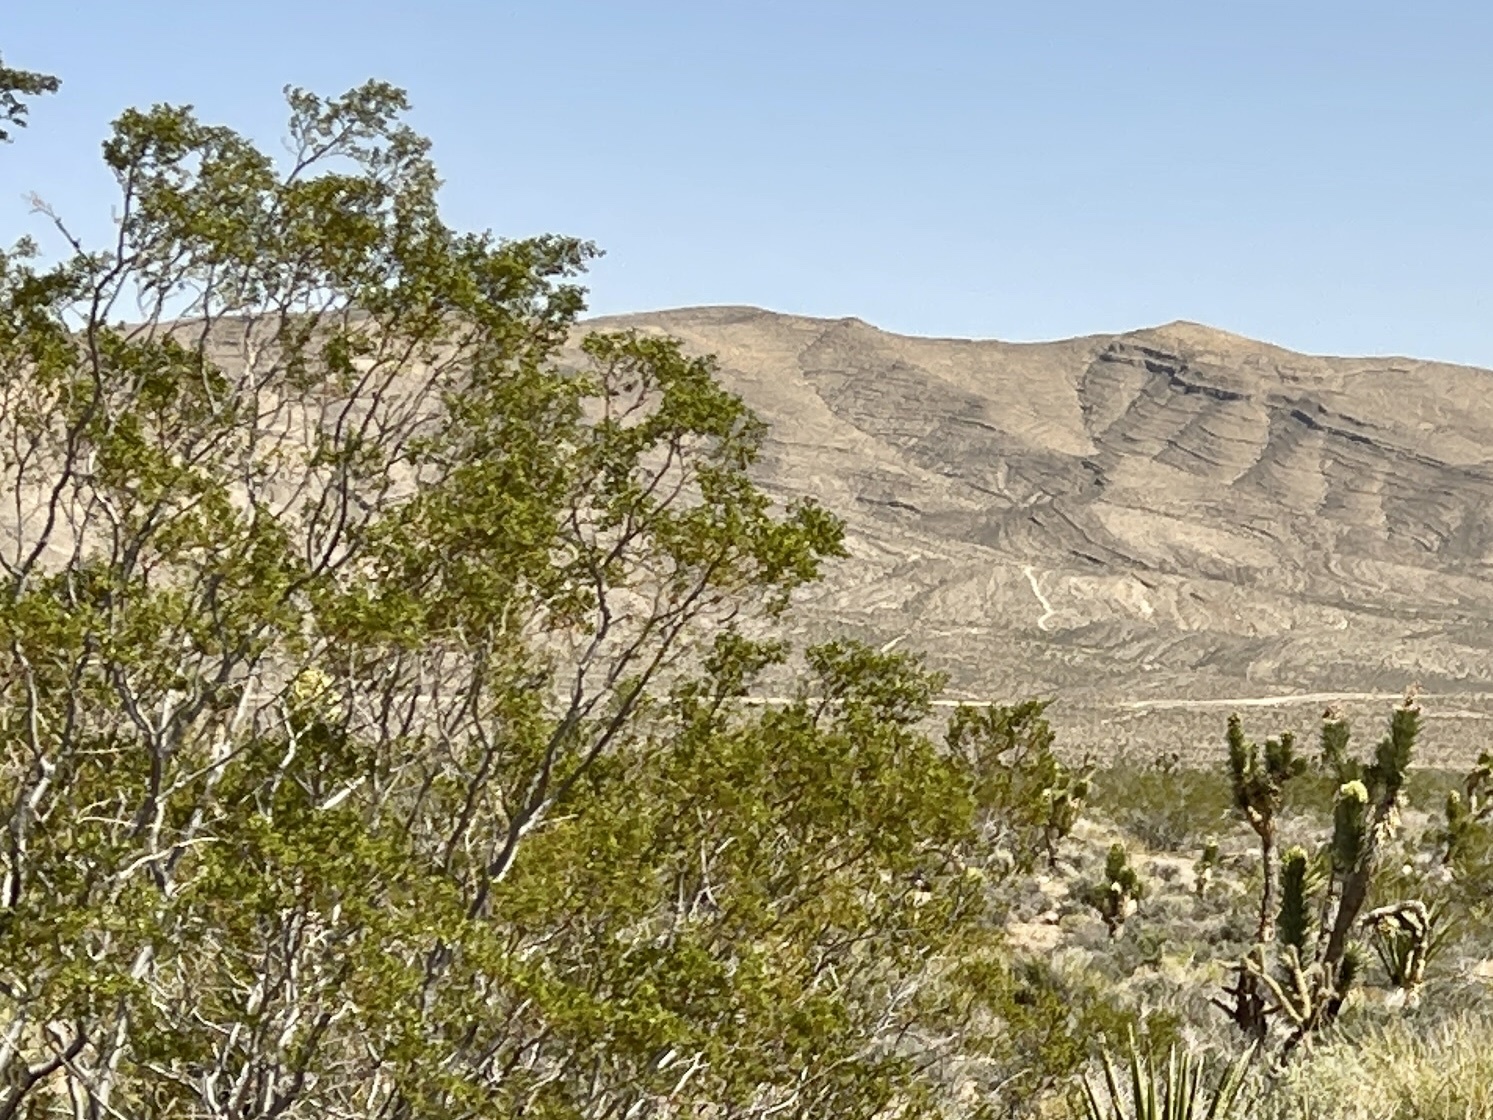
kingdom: Plantae
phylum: Tracheophyta
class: Magnoliopsida
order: Zygophyllales
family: Zygophyllaceae
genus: Larrea
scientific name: Larrea tridentata
